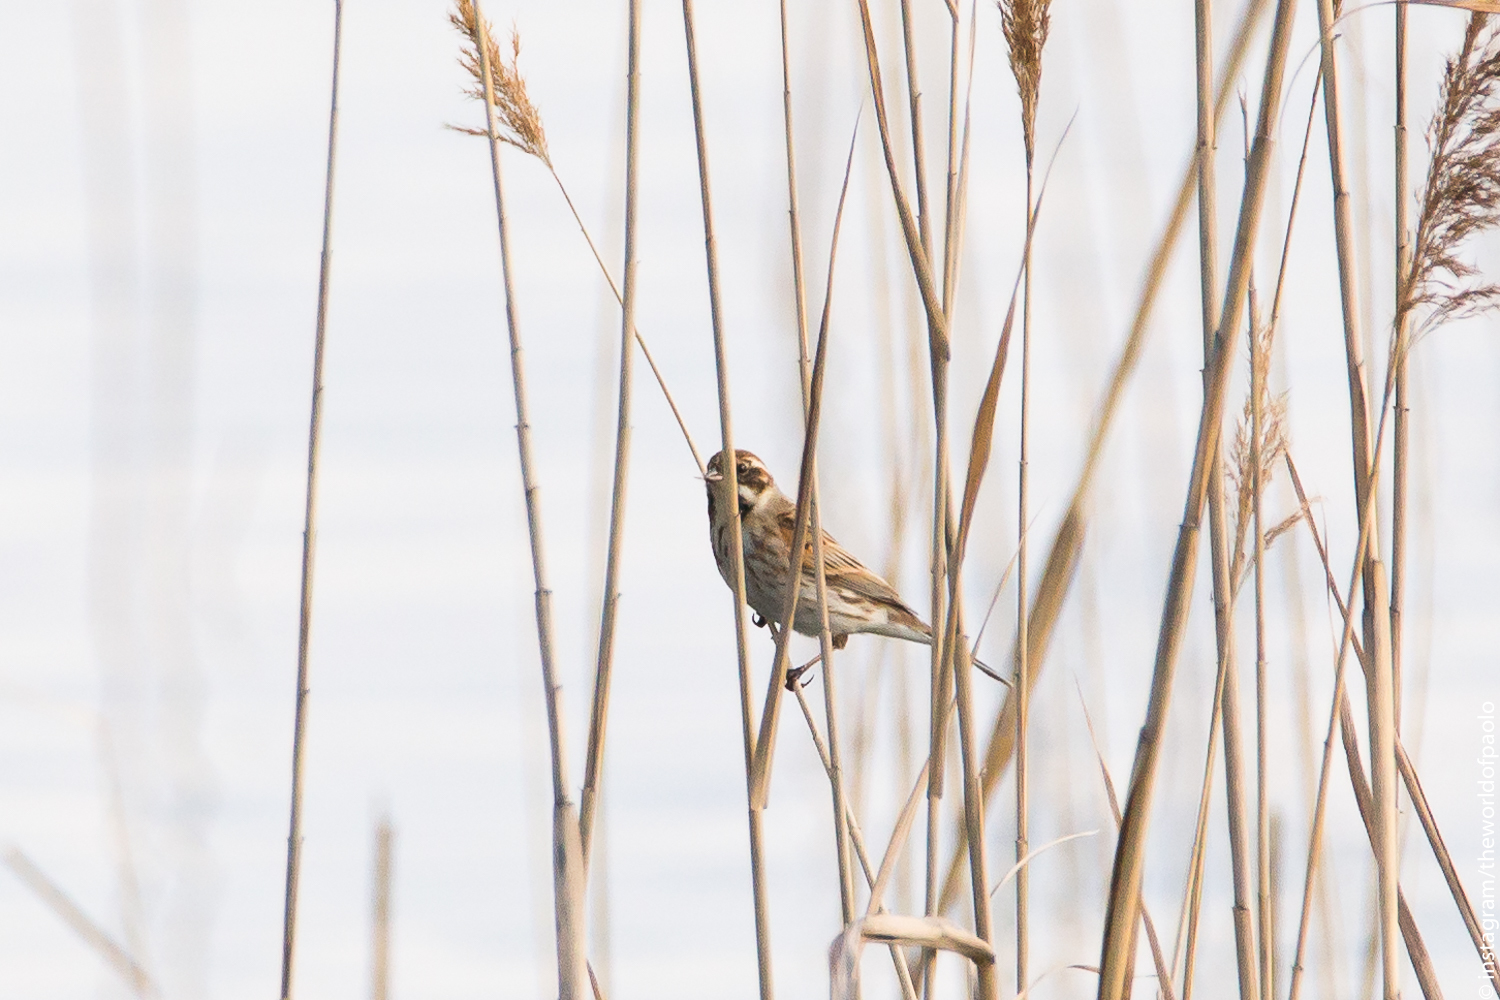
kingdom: Animalia
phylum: Chordata
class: Aves
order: Passeriformes
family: Emberizidae
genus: Emberiza
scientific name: Emberiza schoeniclus
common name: Reed bunting
